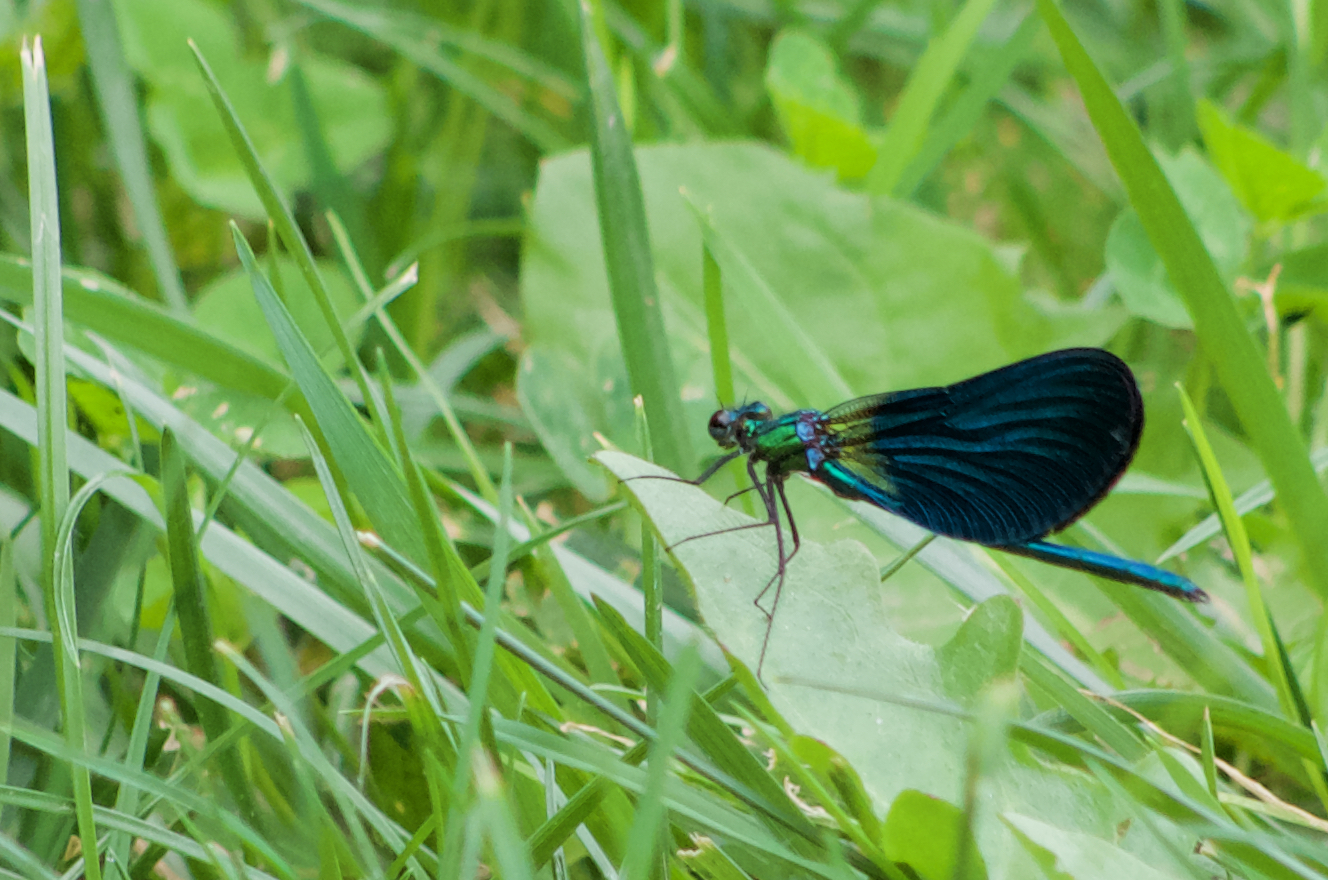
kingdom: Animalia
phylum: Arthropoda
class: Insecta
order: Odonata
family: Calopterygidae
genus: Calopteryx
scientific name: Calopteryx virgo
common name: Beautiful demoiselle
